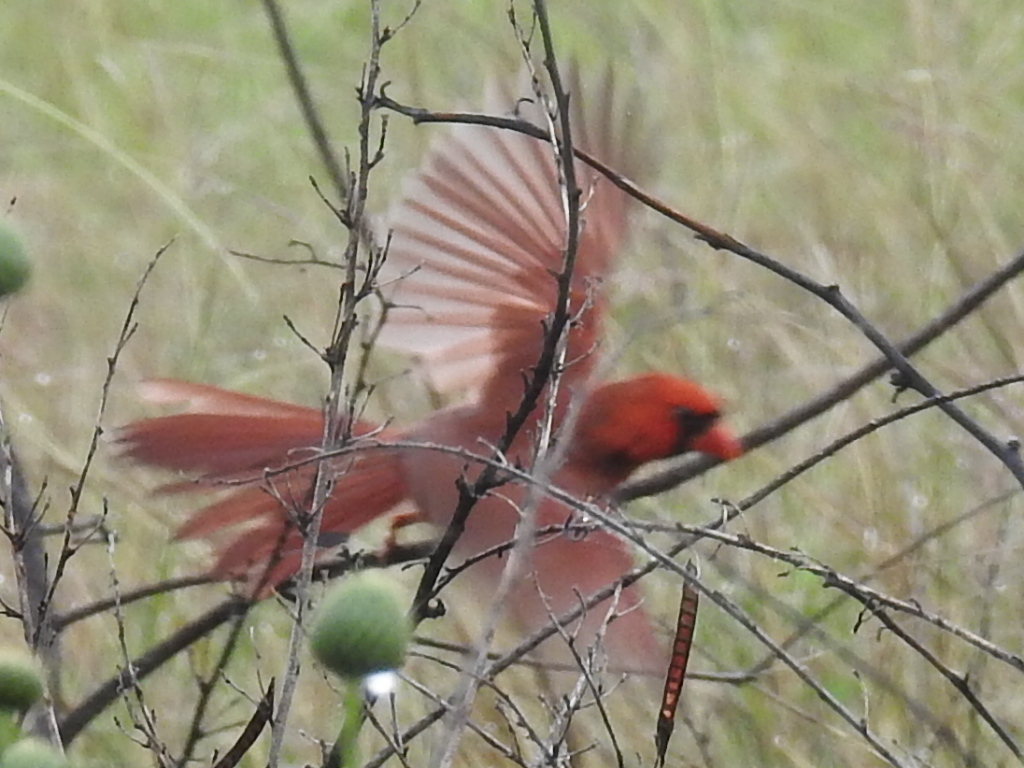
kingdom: Animalia
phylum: Chordata
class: Aves
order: Passeriformes
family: Cardinalidae
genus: Cardinalis
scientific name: Cardinalis cardinalis
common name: Northern cardinal
